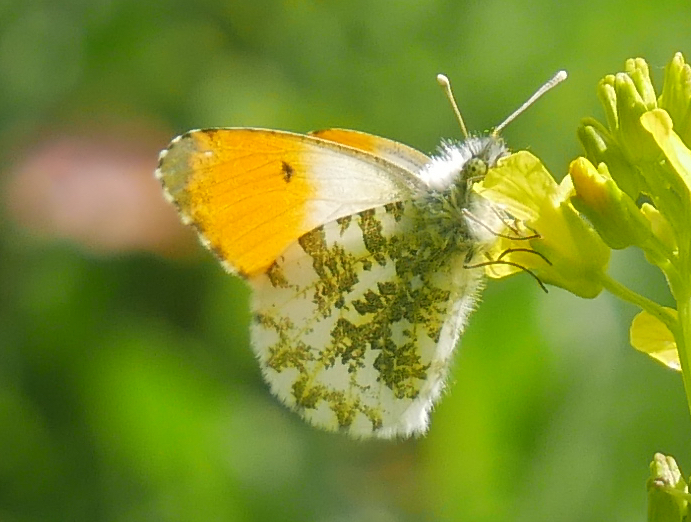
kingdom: Animalia
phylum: Arthropoda
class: Insecta
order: Lepidoptera
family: Pieridae
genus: Anthocharis
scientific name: Anthocharis cardamines
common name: Orange-tip
